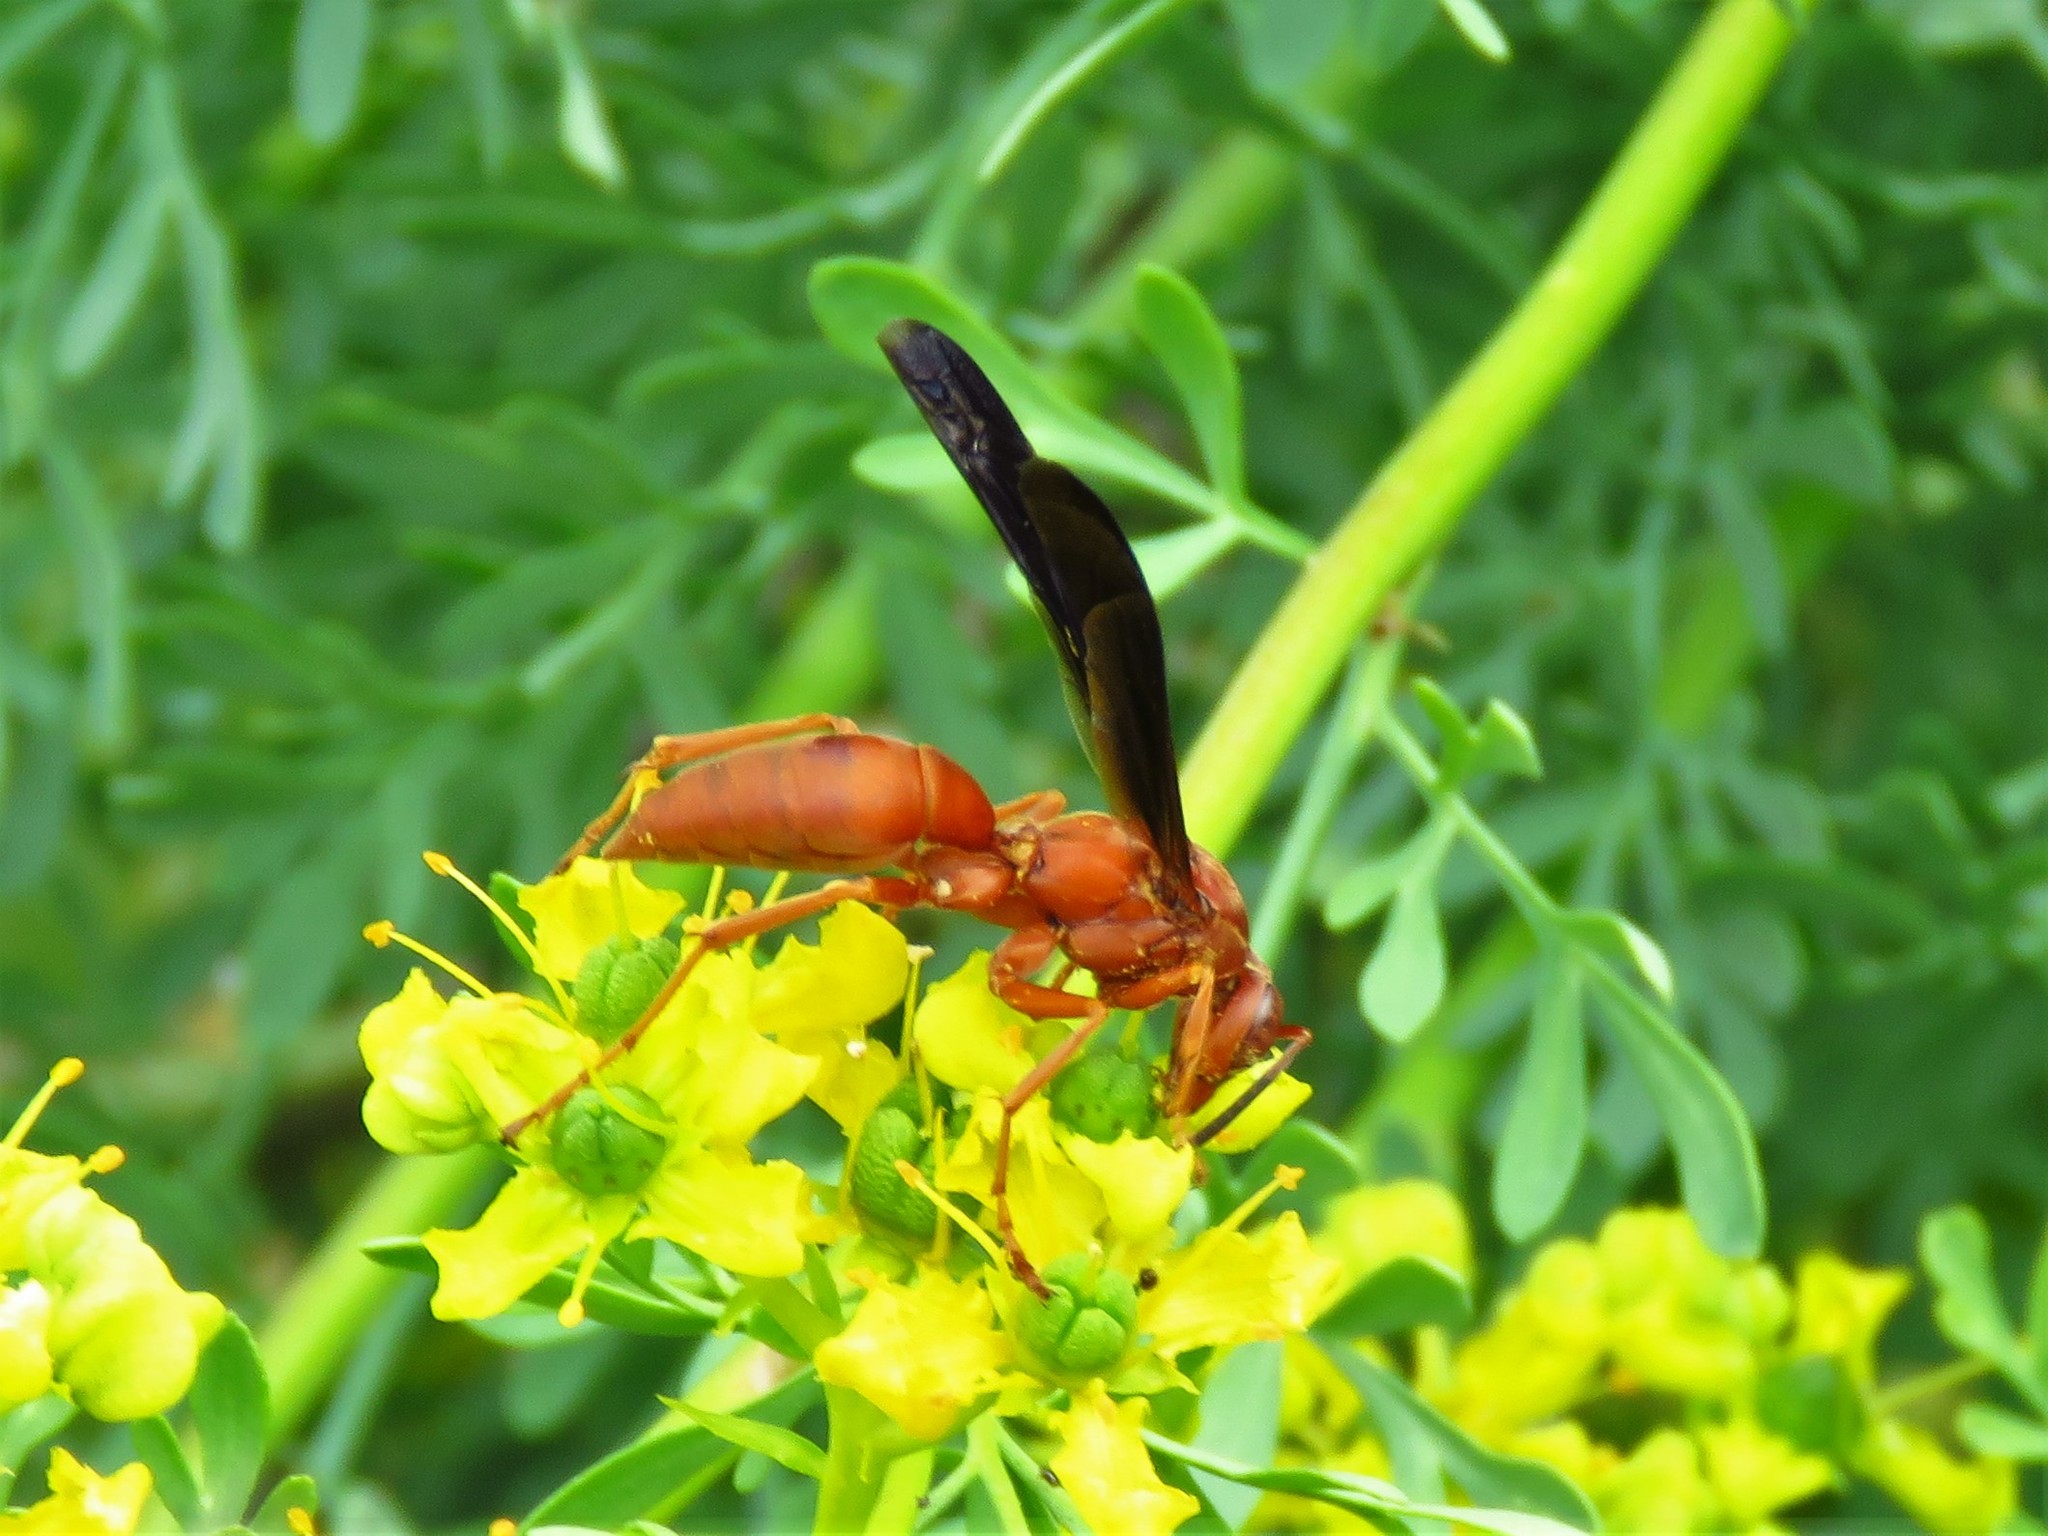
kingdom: Animalia
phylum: Arthropoda
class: Insecta
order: Hymenoptera
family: Vespidae
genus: Fuscopolistes
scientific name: Fuscopolistes
